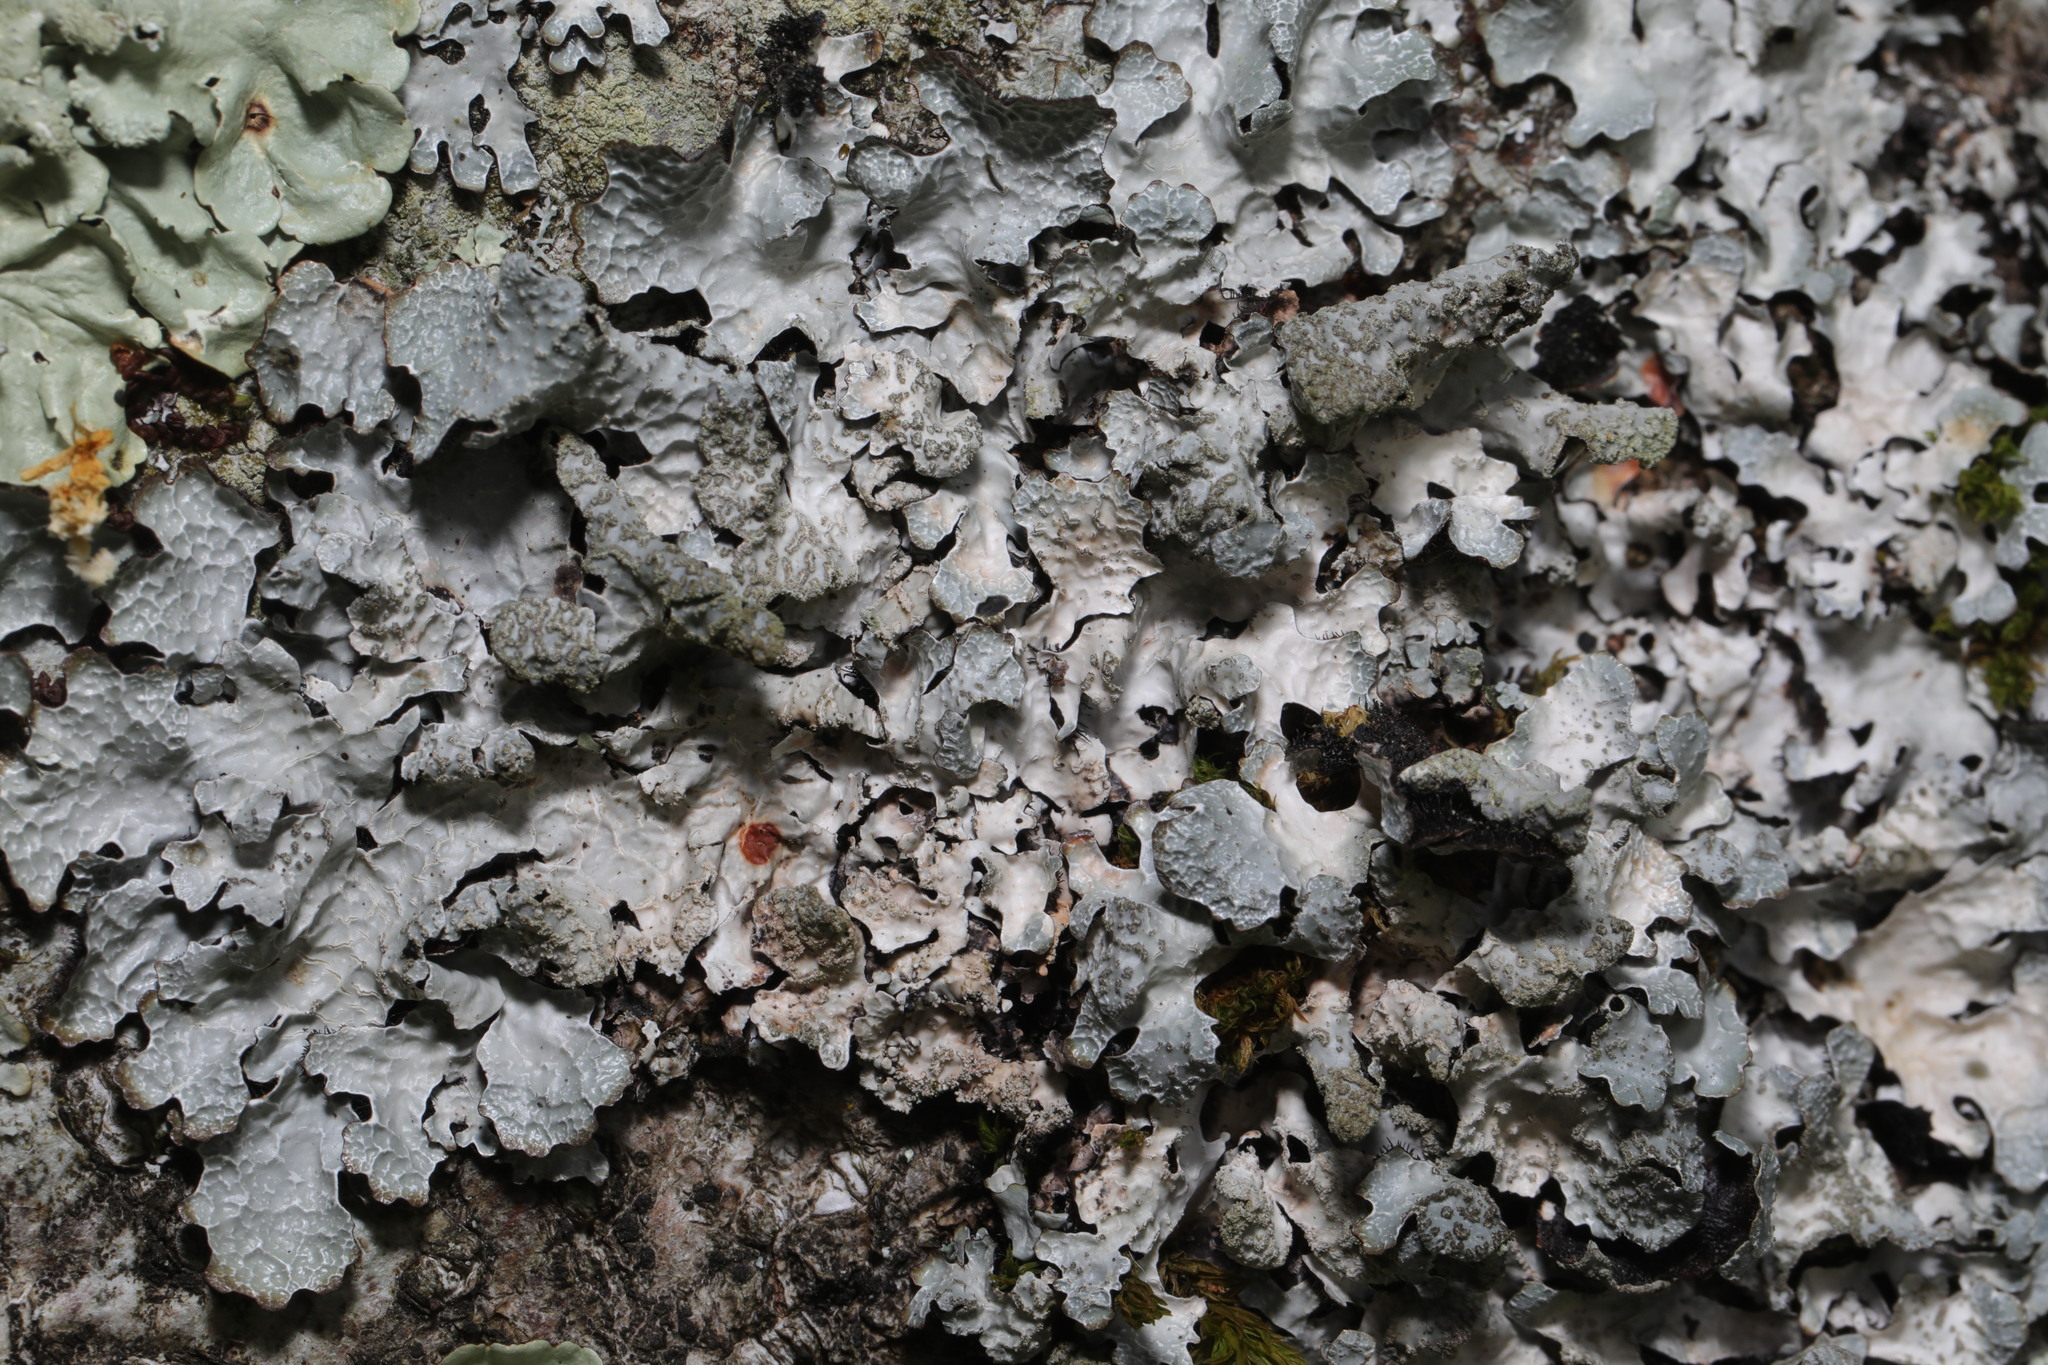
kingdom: Fungi
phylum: Ascomycota
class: Lecanoromycetes
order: Lecanorales
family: Parmeliaceae
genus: Parmelia
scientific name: Parmelia sulcata
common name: Netted shield lichen
